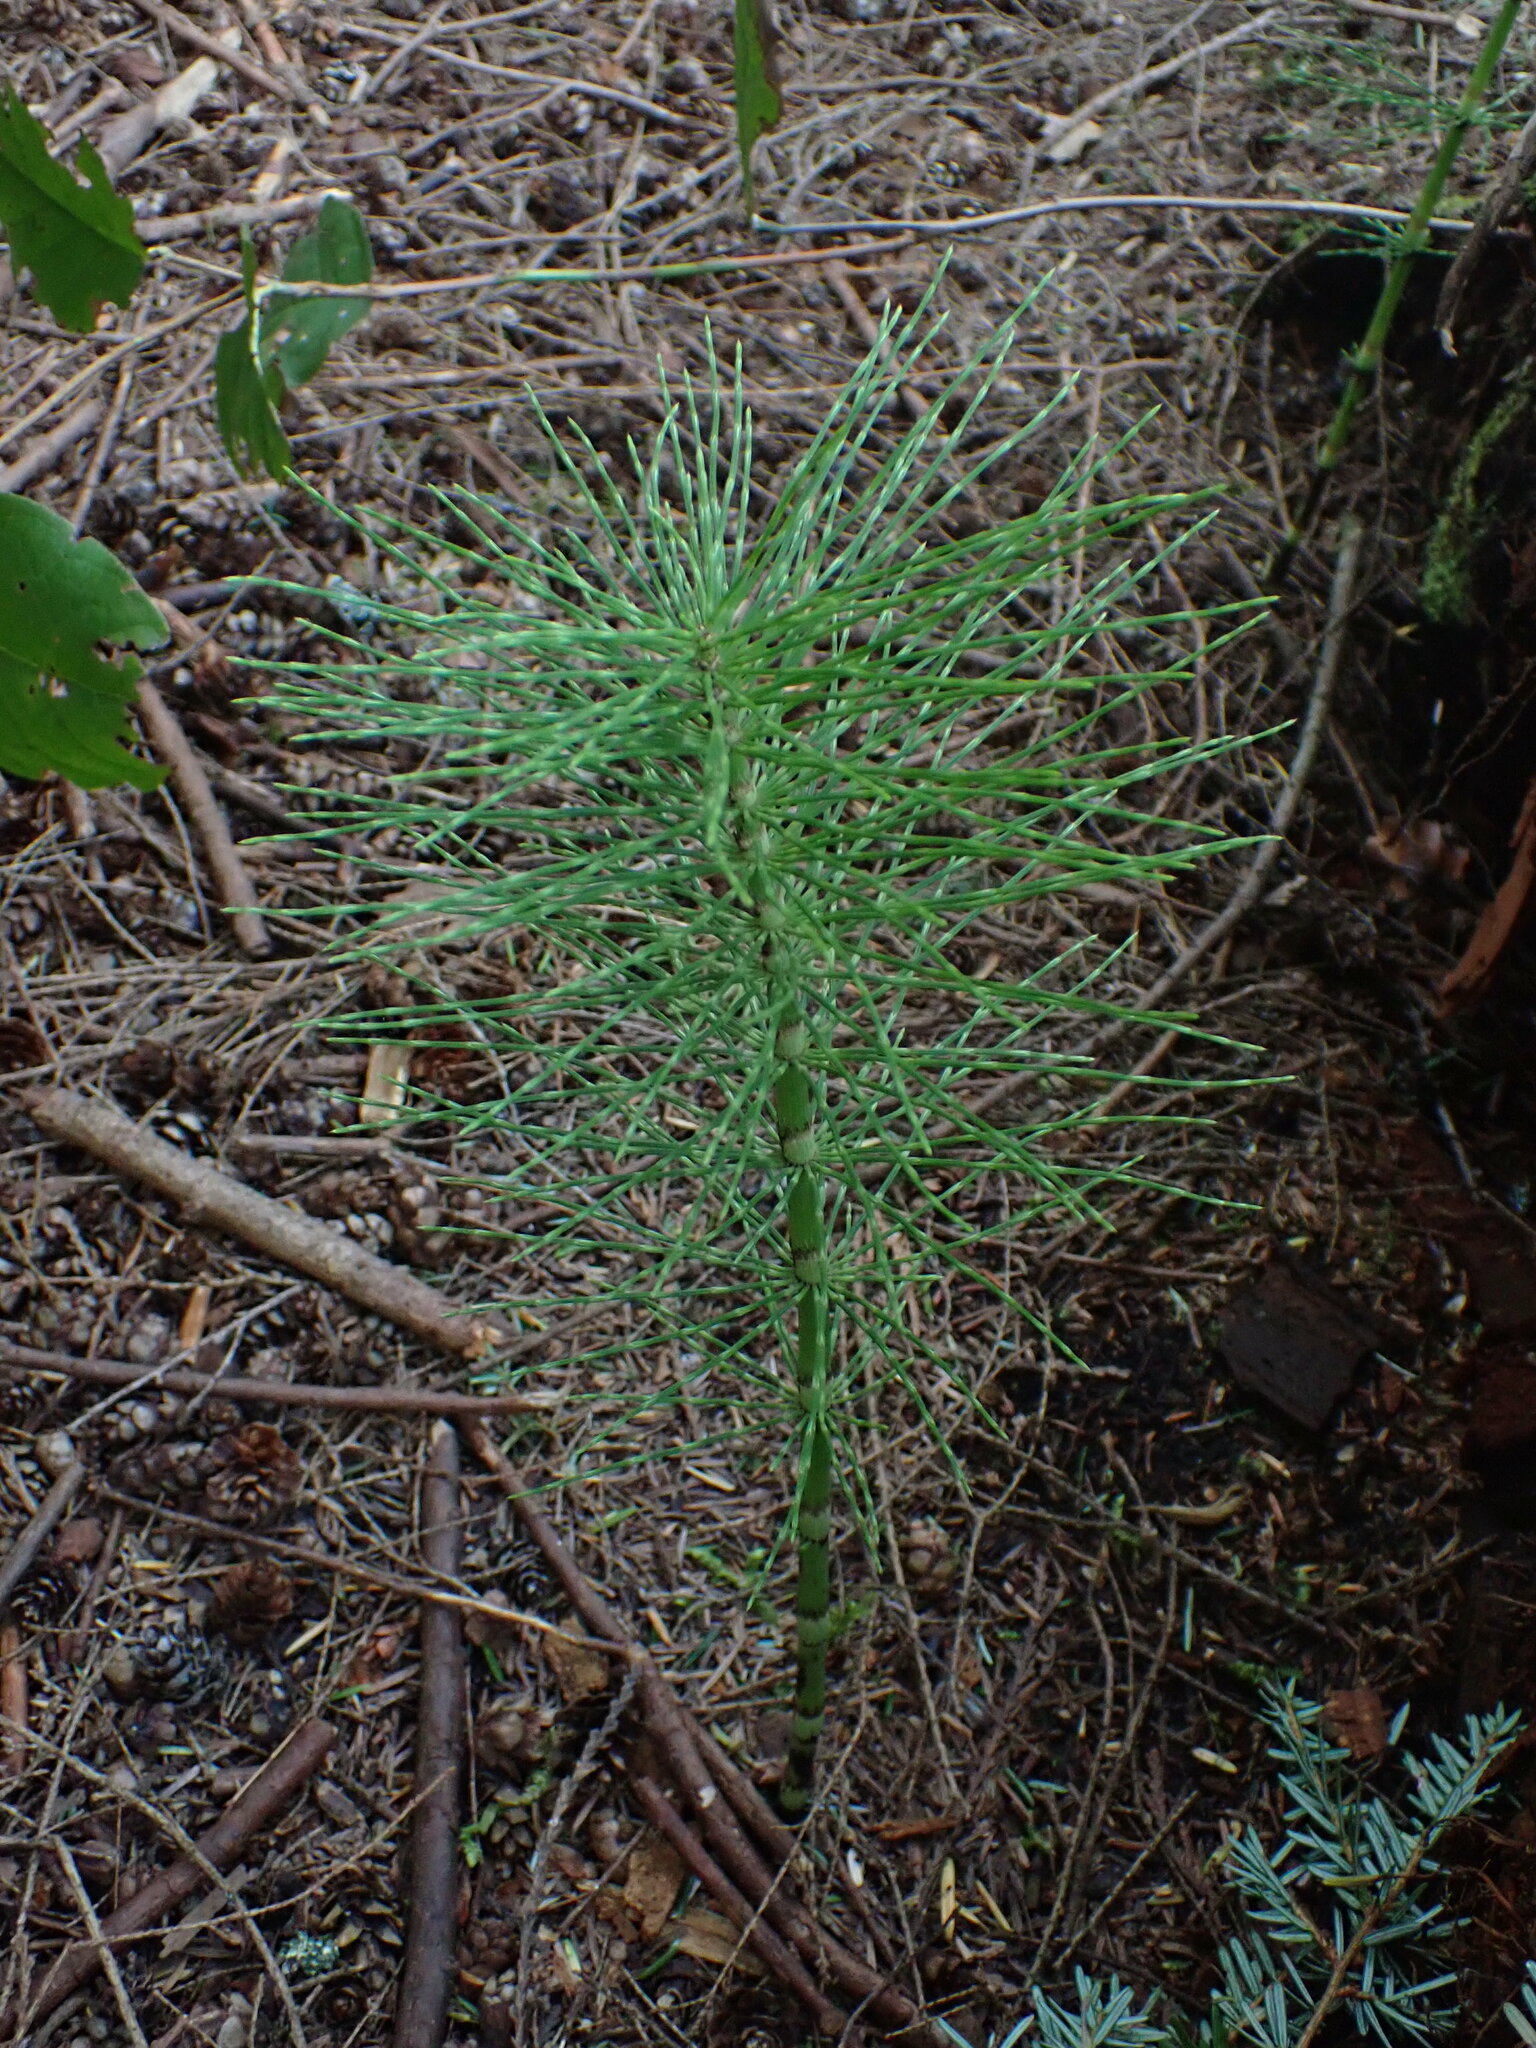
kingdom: Plantae
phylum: Tracheophyta
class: Polypodiopsida
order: Equisetales
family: Equisetaceae
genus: Equisetum
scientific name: Equisetum braunii
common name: Braun's horsetail
